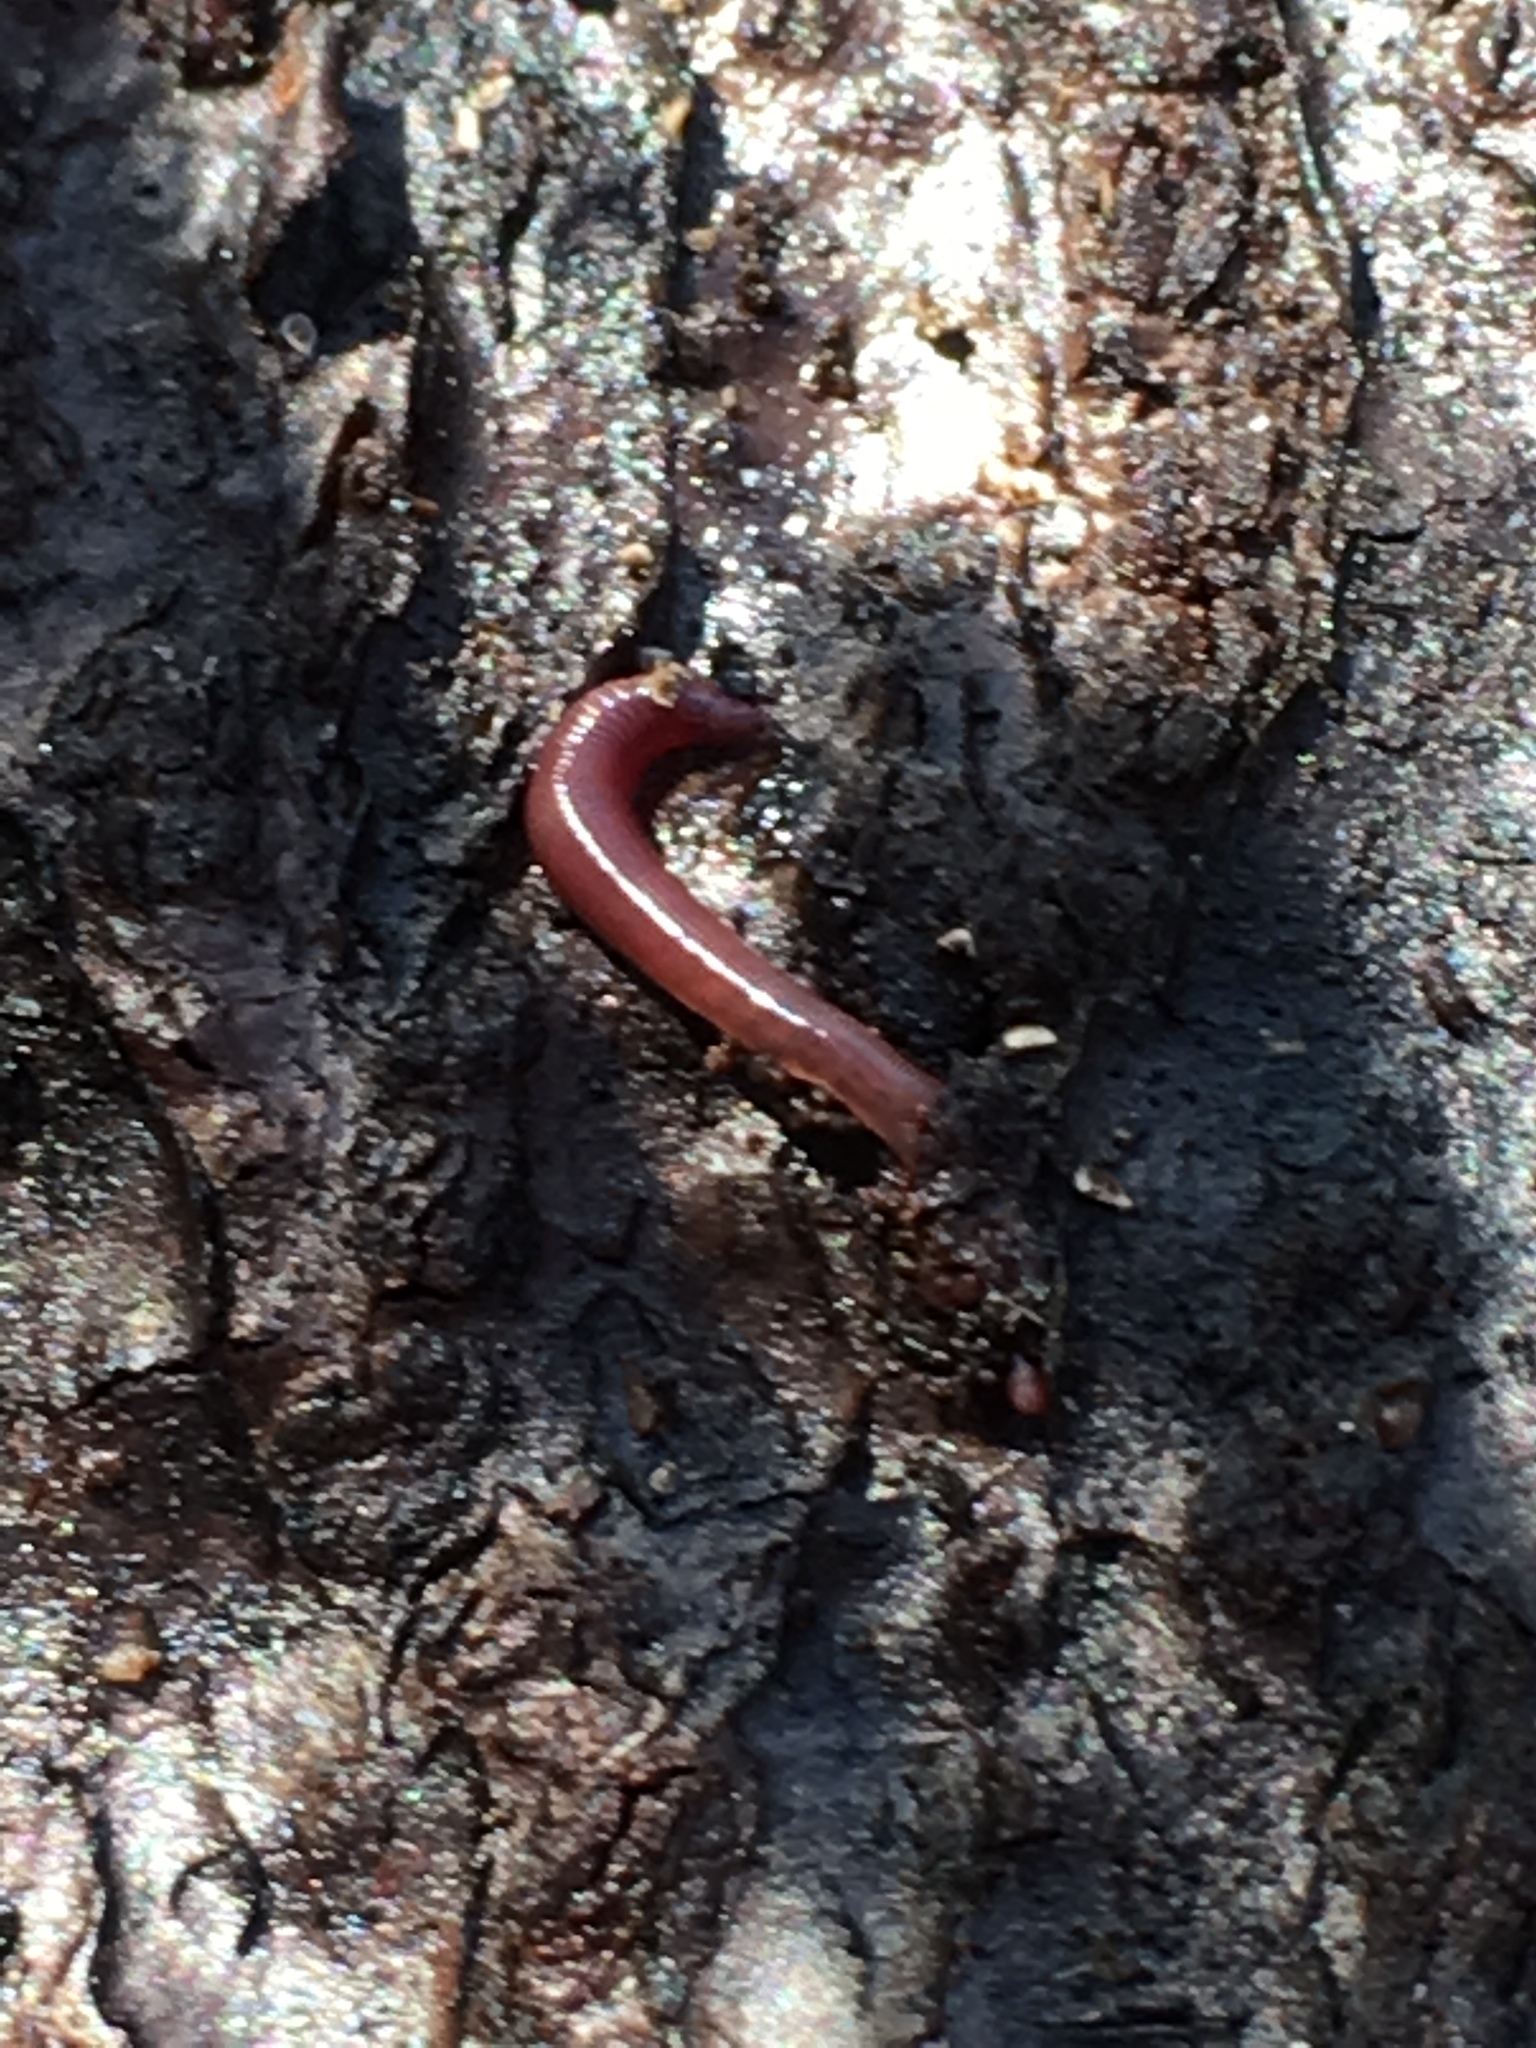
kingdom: Animalia
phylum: Annelida
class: Clitellata
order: Crassiclitellata
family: Lumbricidae
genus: Lumbricus
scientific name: Lumbricus terrestris
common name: Common earthworm
